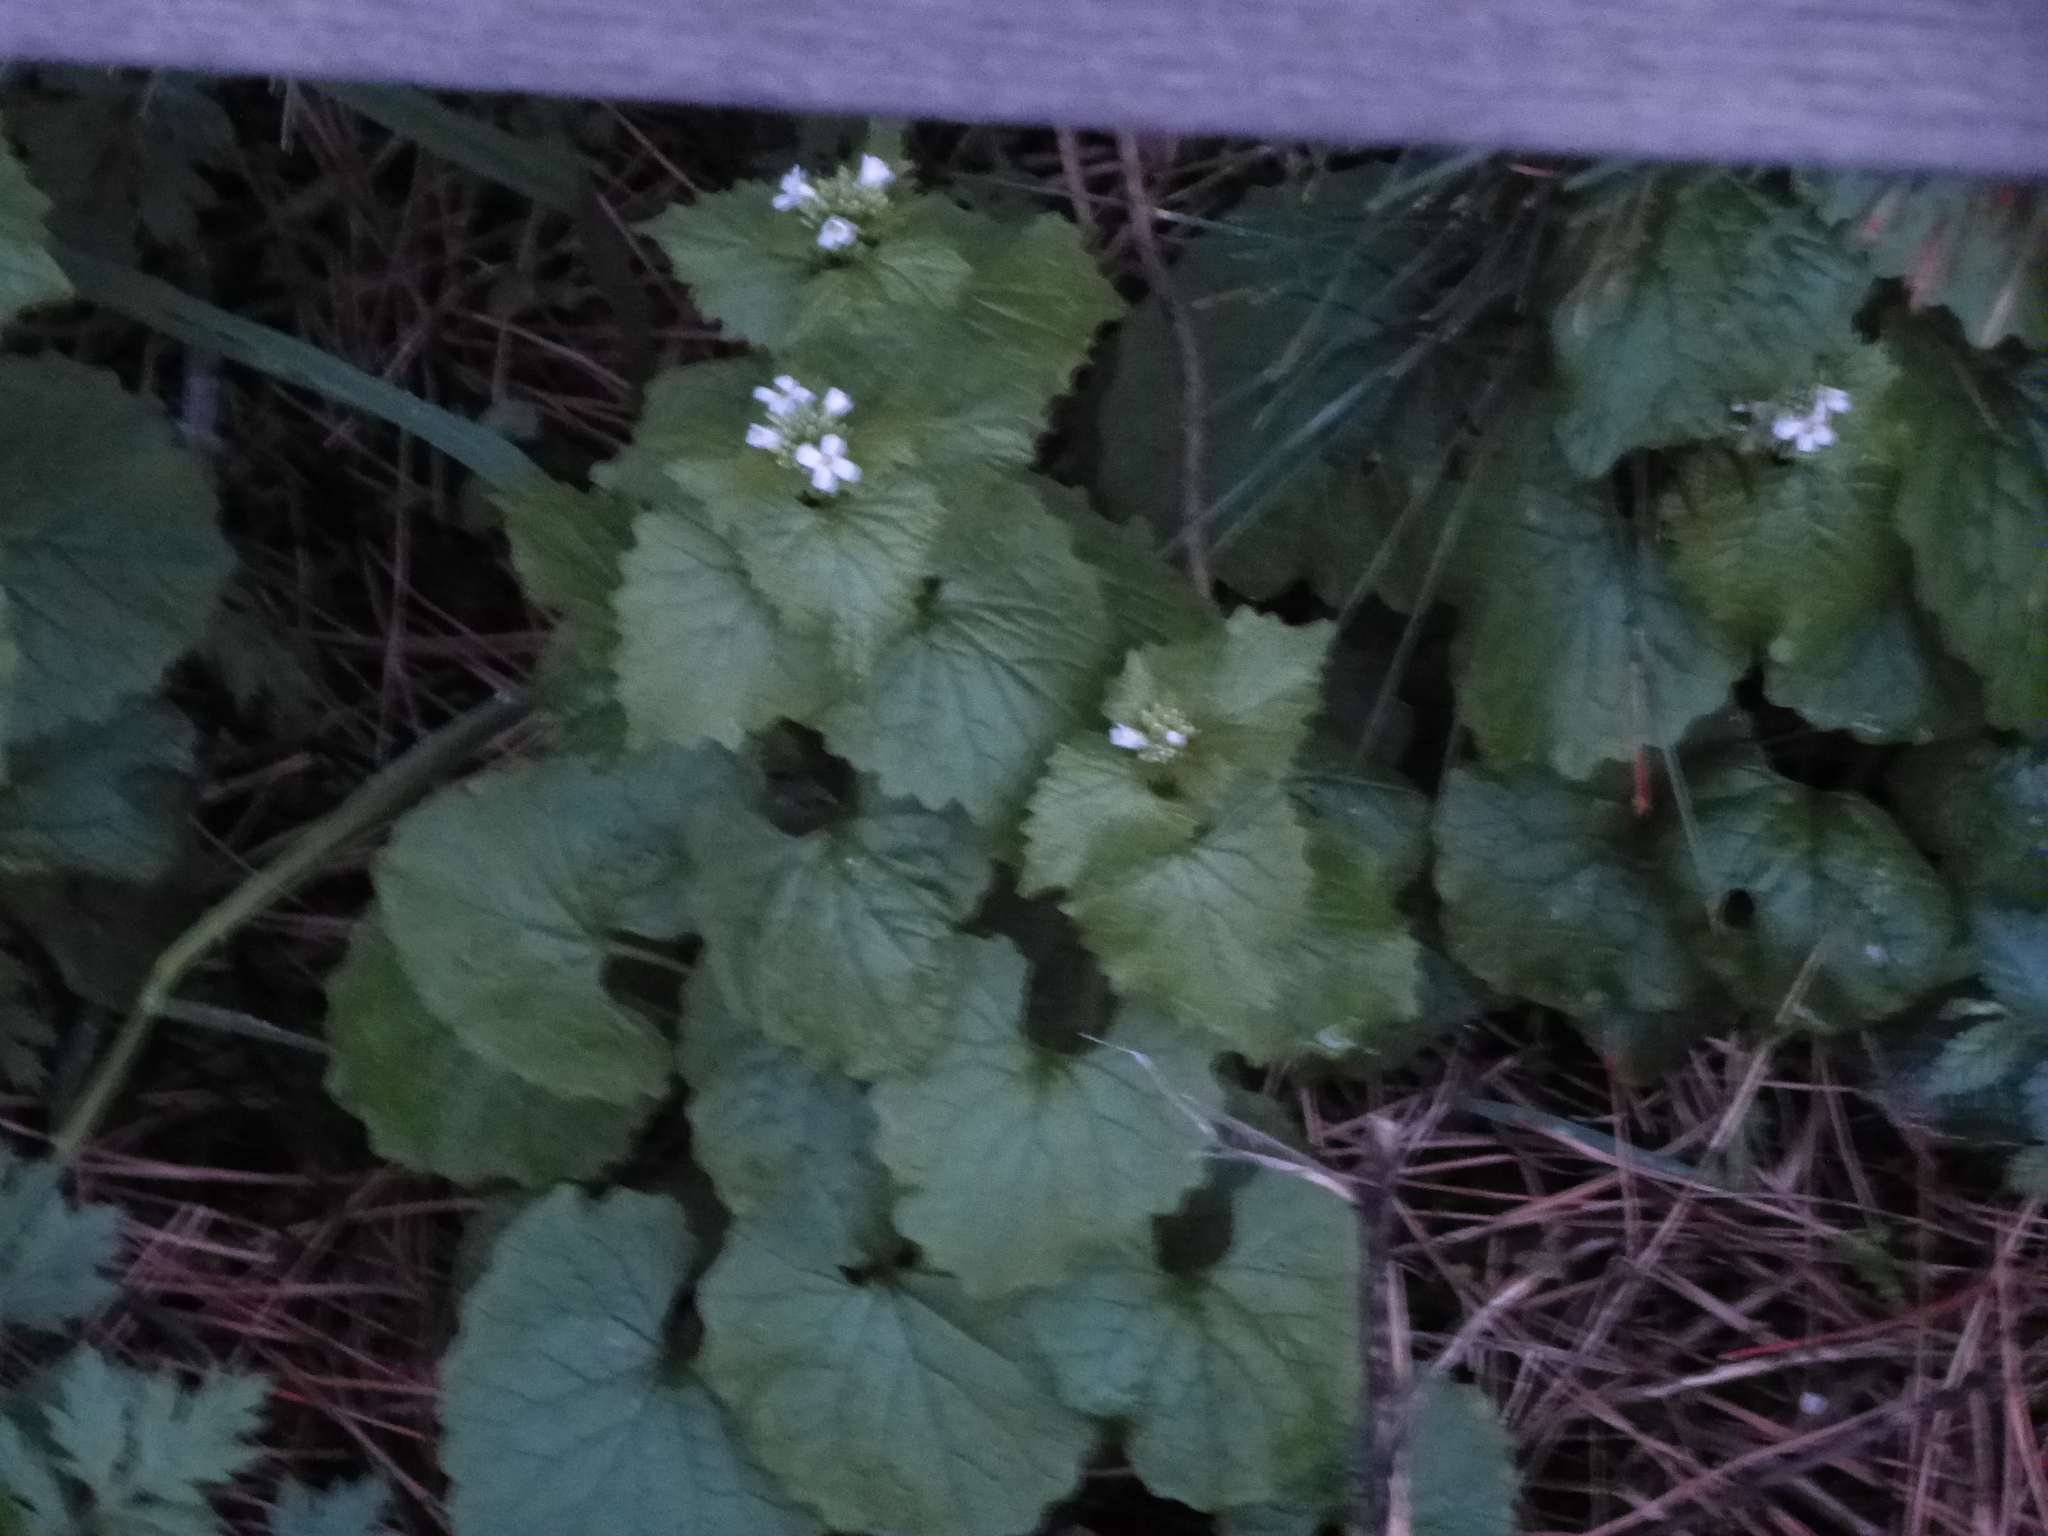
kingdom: Plantae
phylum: Tracheophyta
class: Magnoliopsida
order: Brassicales
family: Brassicaceae
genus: Alliaria
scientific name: Alliaria petiolata
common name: Garlic mustard
